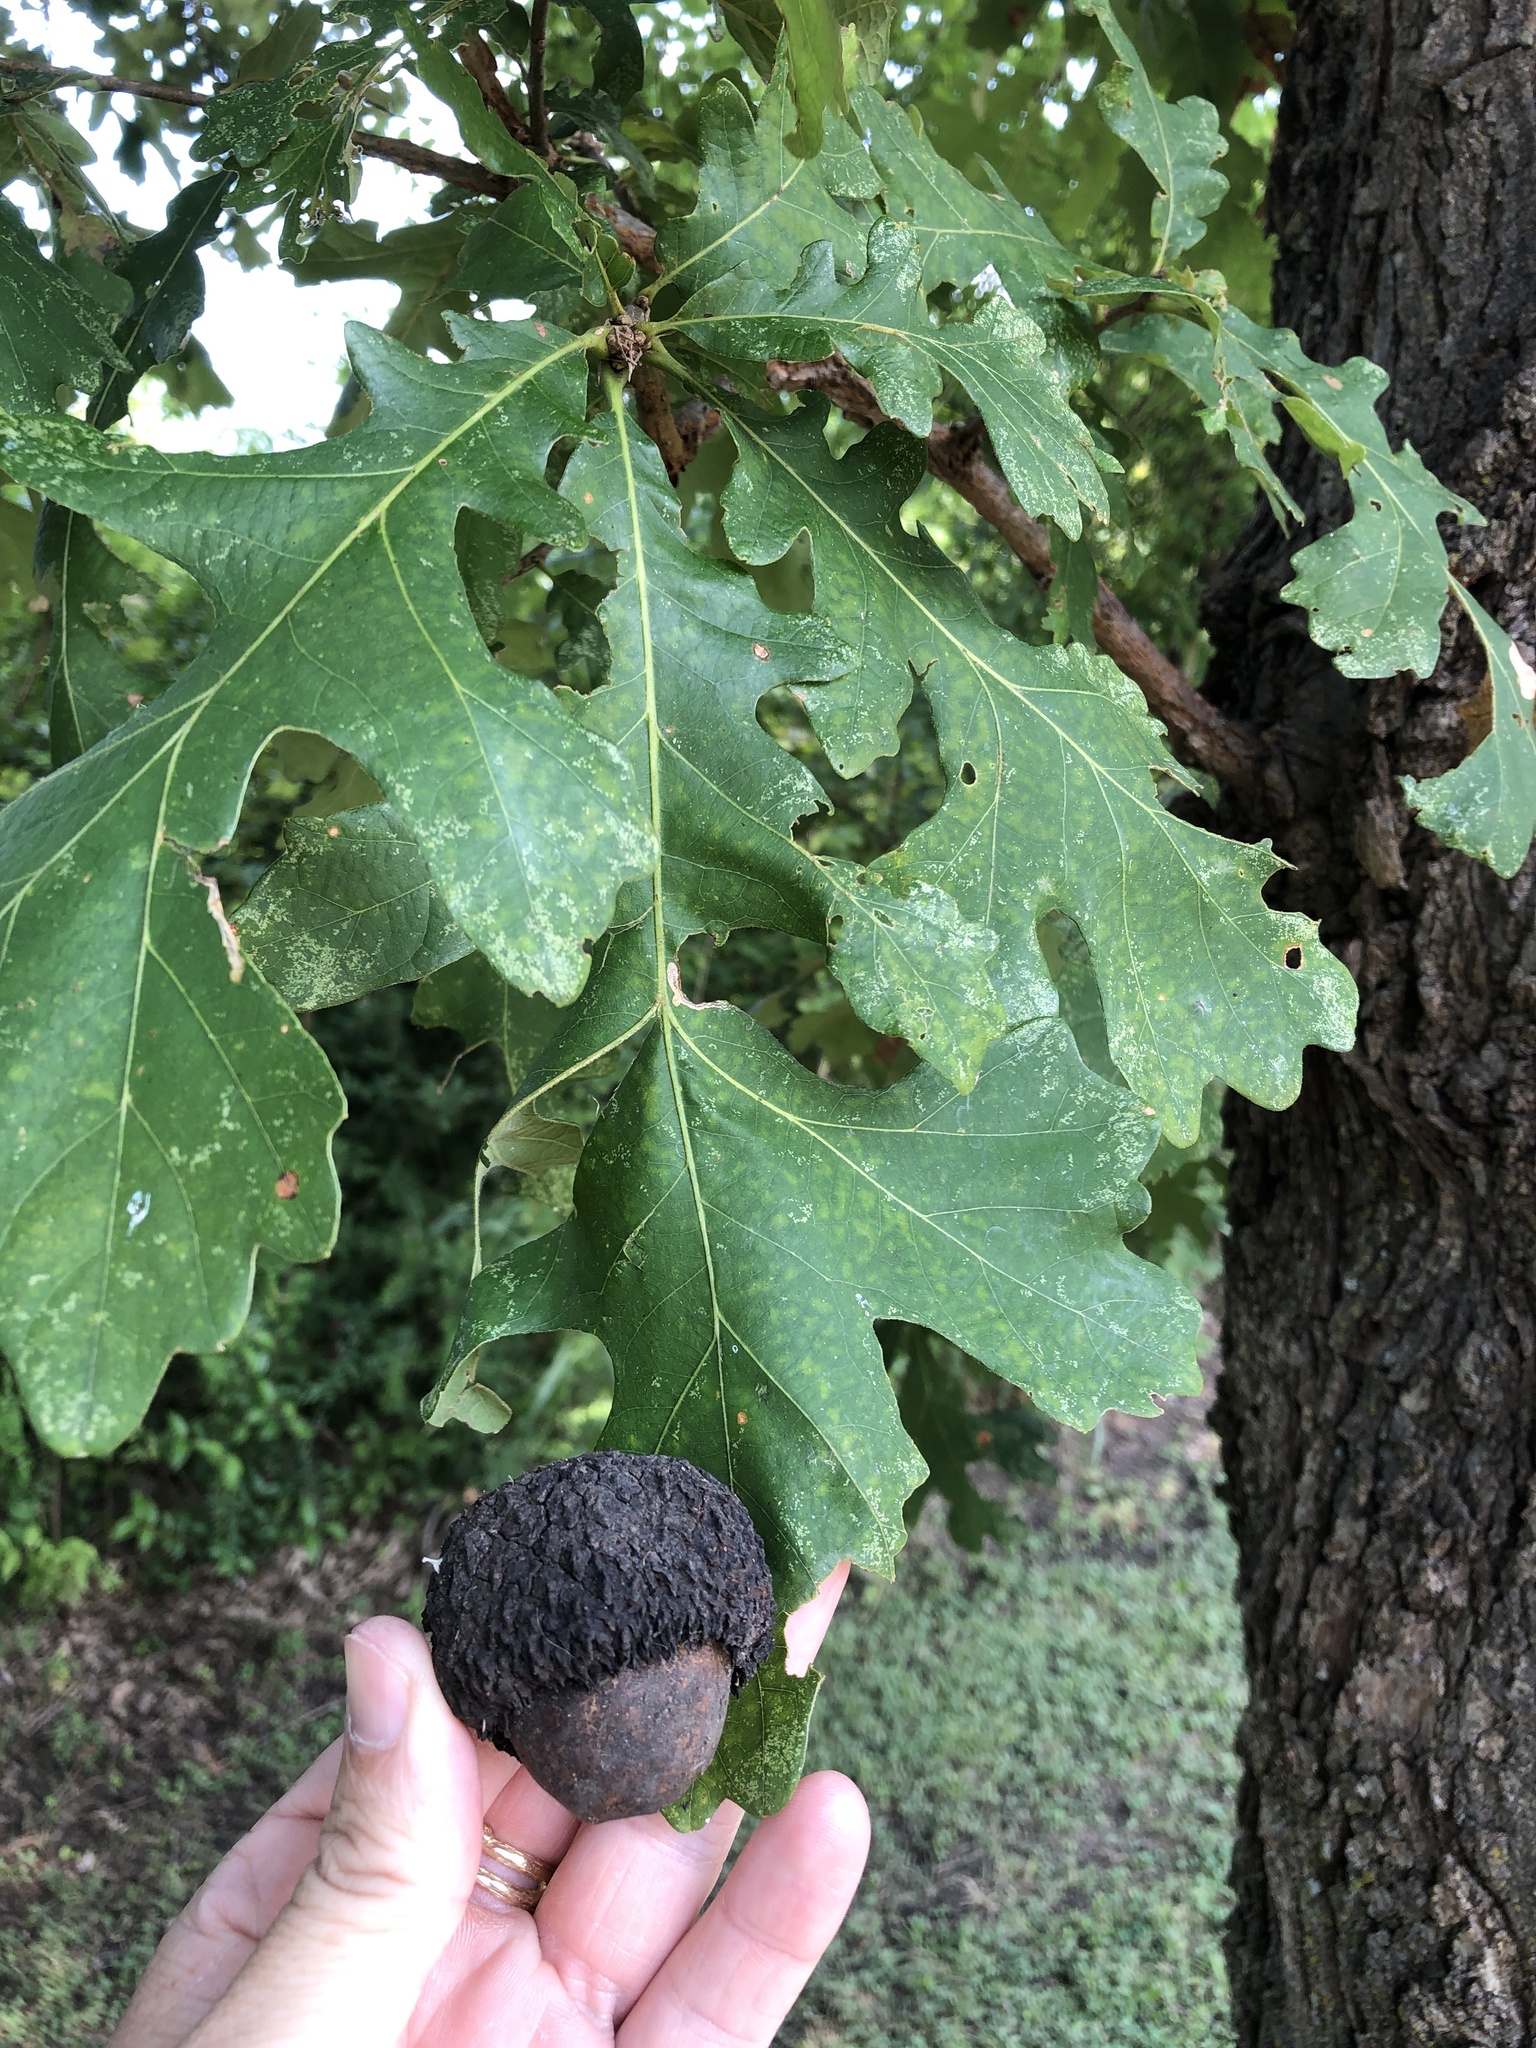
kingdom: Plantae
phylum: Tracheophyta
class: Magnoliopsida
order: Fagales
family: Fagaceae
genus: Quercus
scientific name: Quercus macrocarpa
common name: Bur oak
